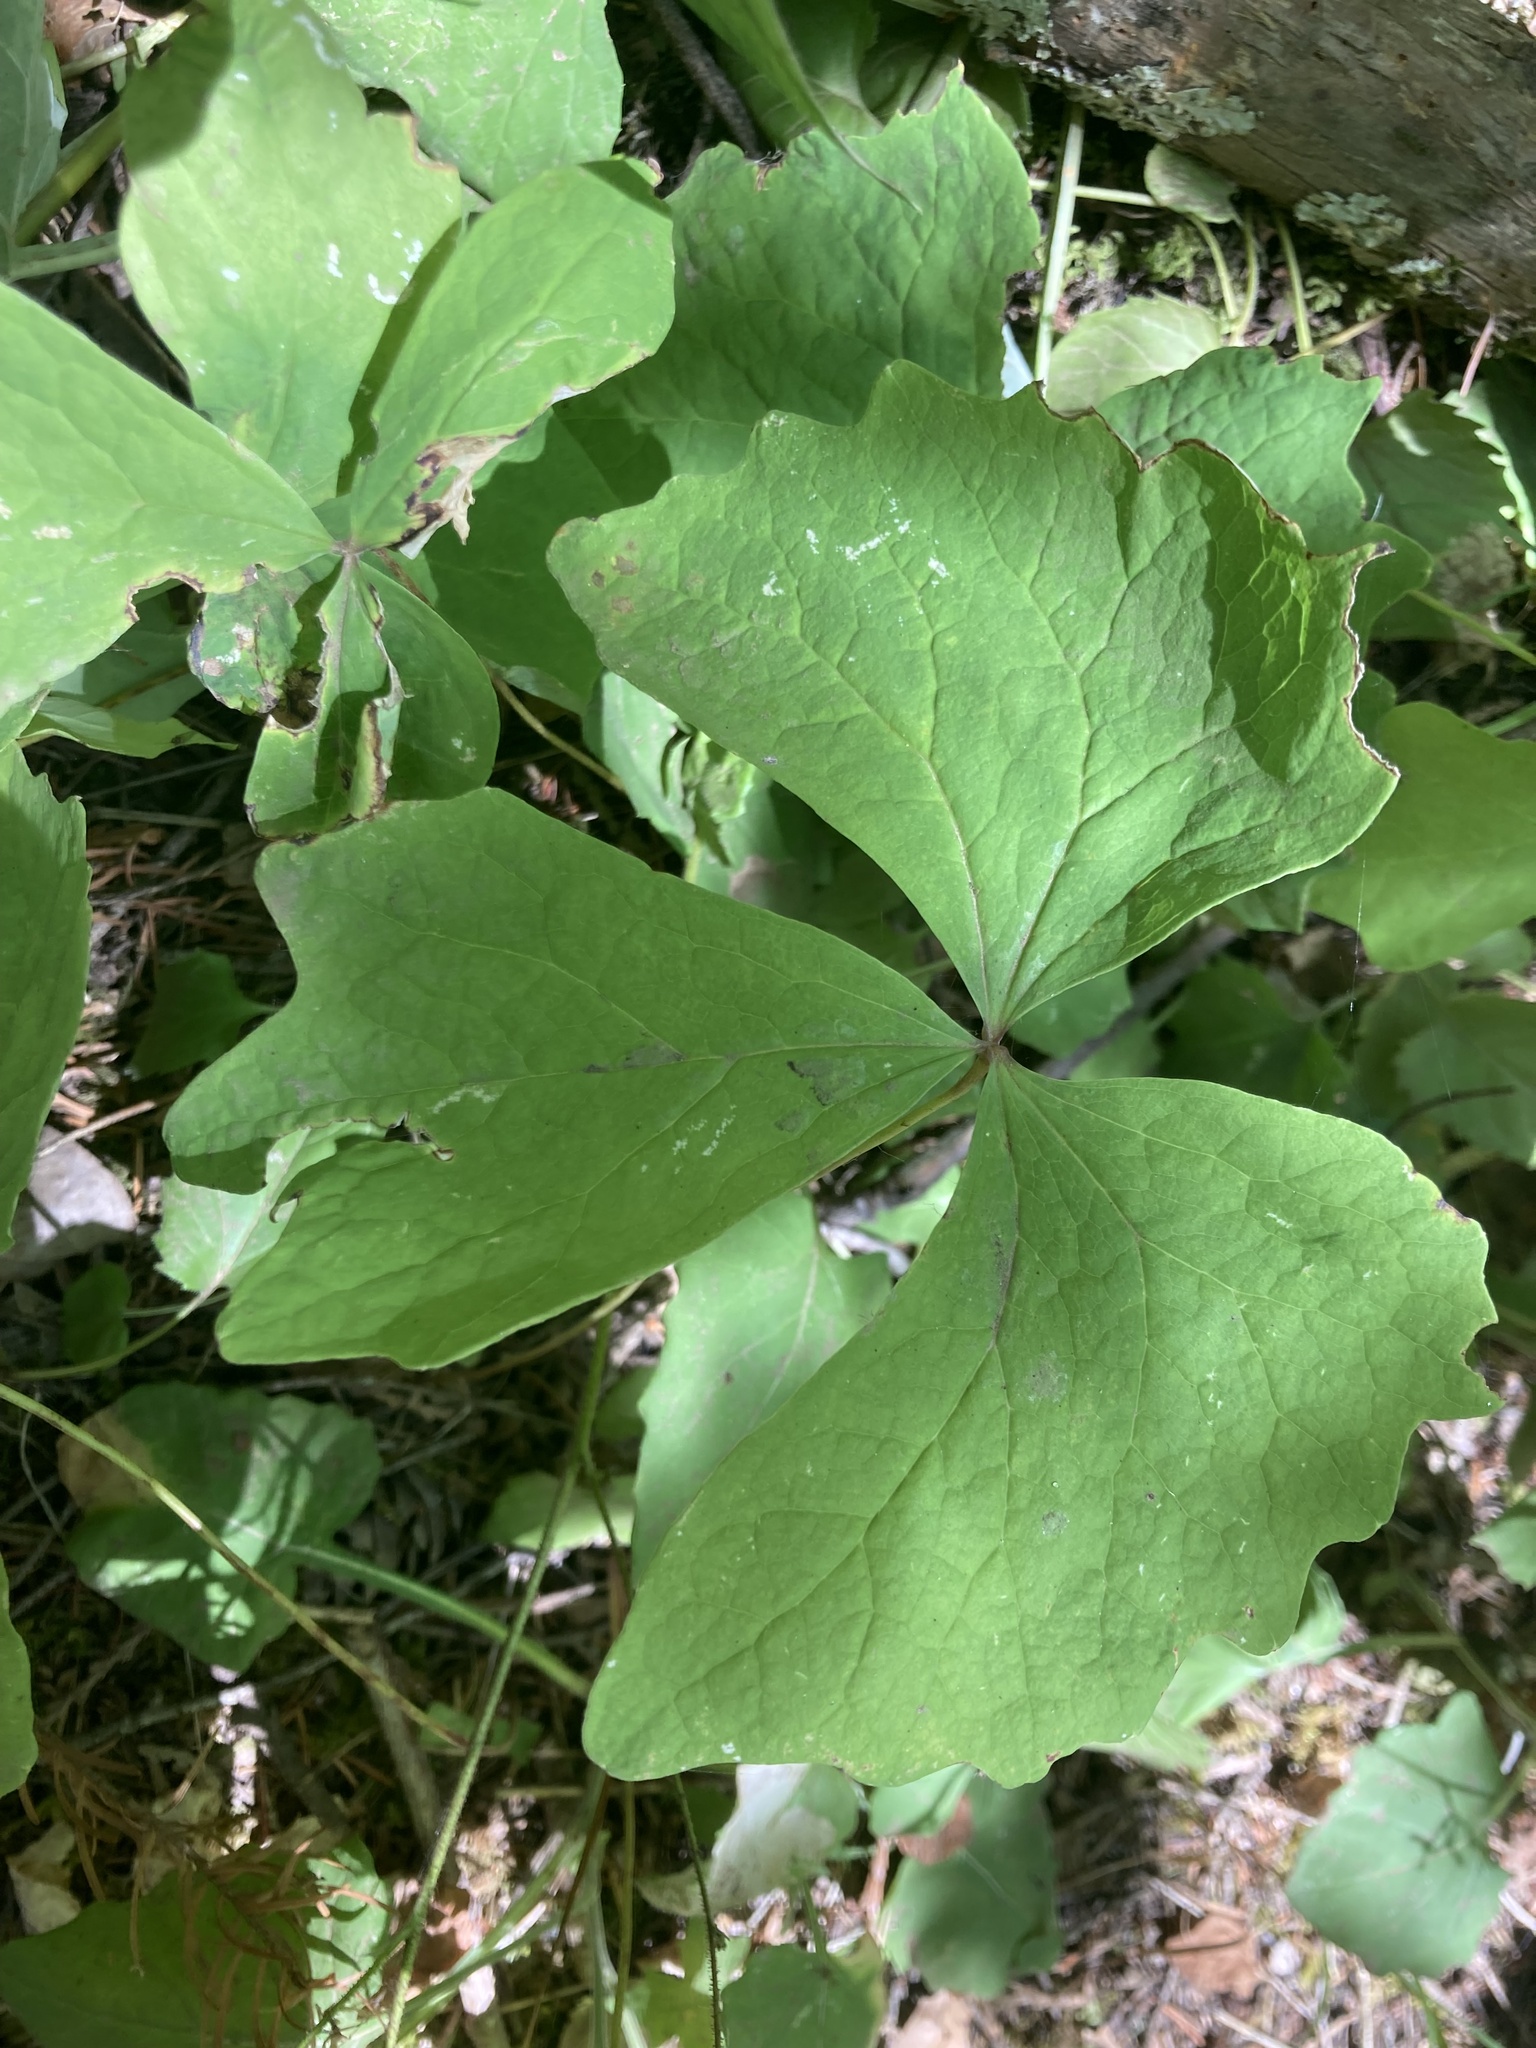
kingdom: Plantae
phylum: Tracheophyta
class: Magnoliopsida
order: Ranunculales
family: Berberidaceae
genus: Achlys
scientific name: Achlys triphylla
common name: Vanilla-leaf
